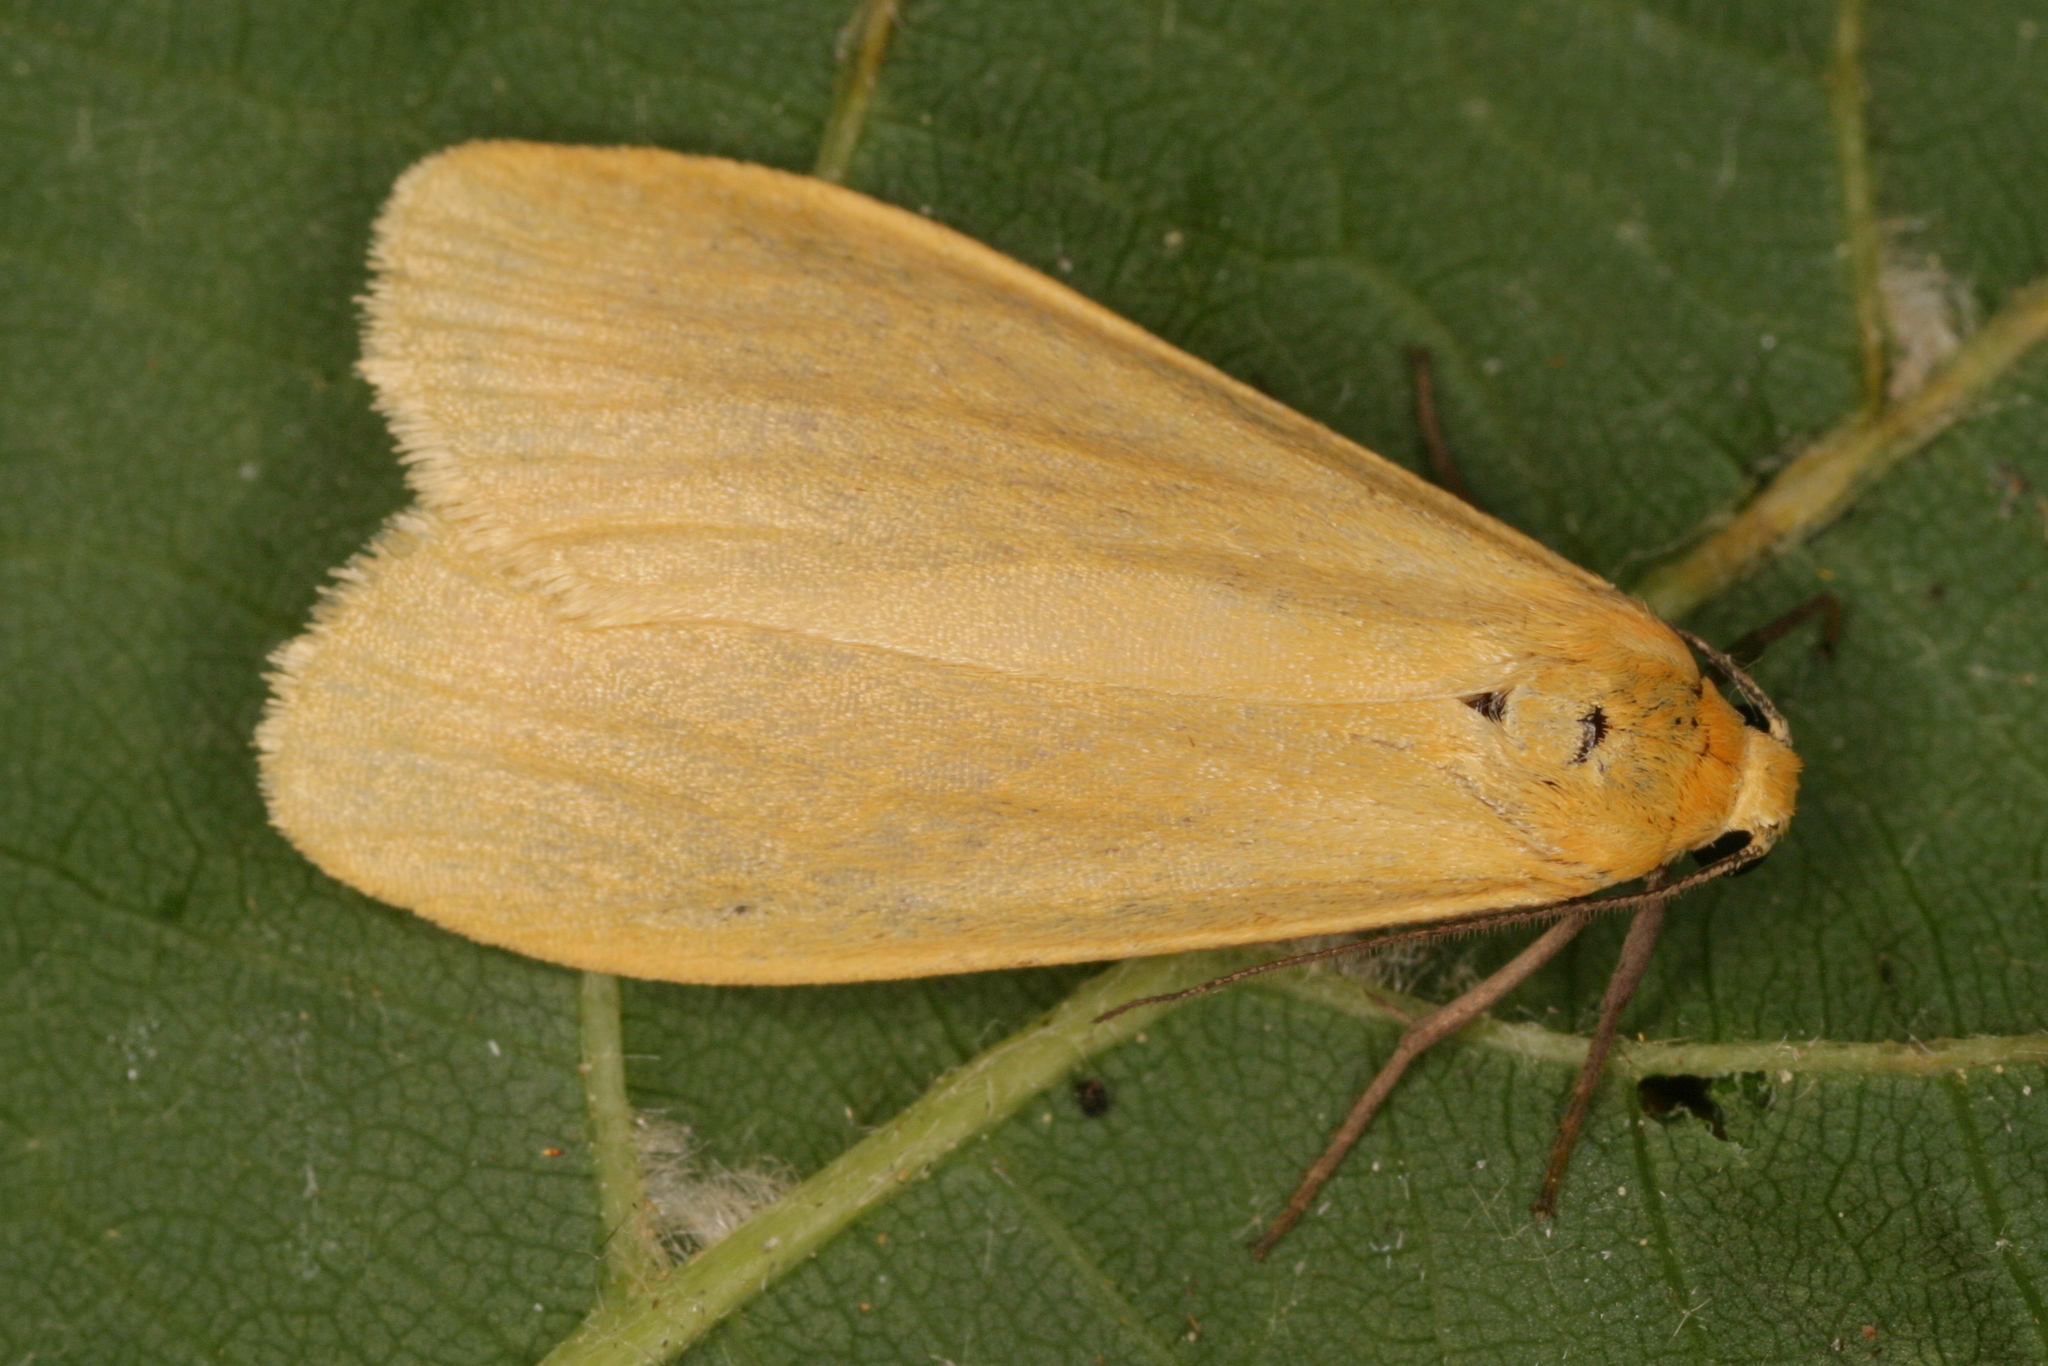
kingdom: Animalia
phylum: Arthropoda
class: Insecta
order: Lepidoptera
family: Erebidae
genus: Wittia
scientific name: Wittia sororcula
